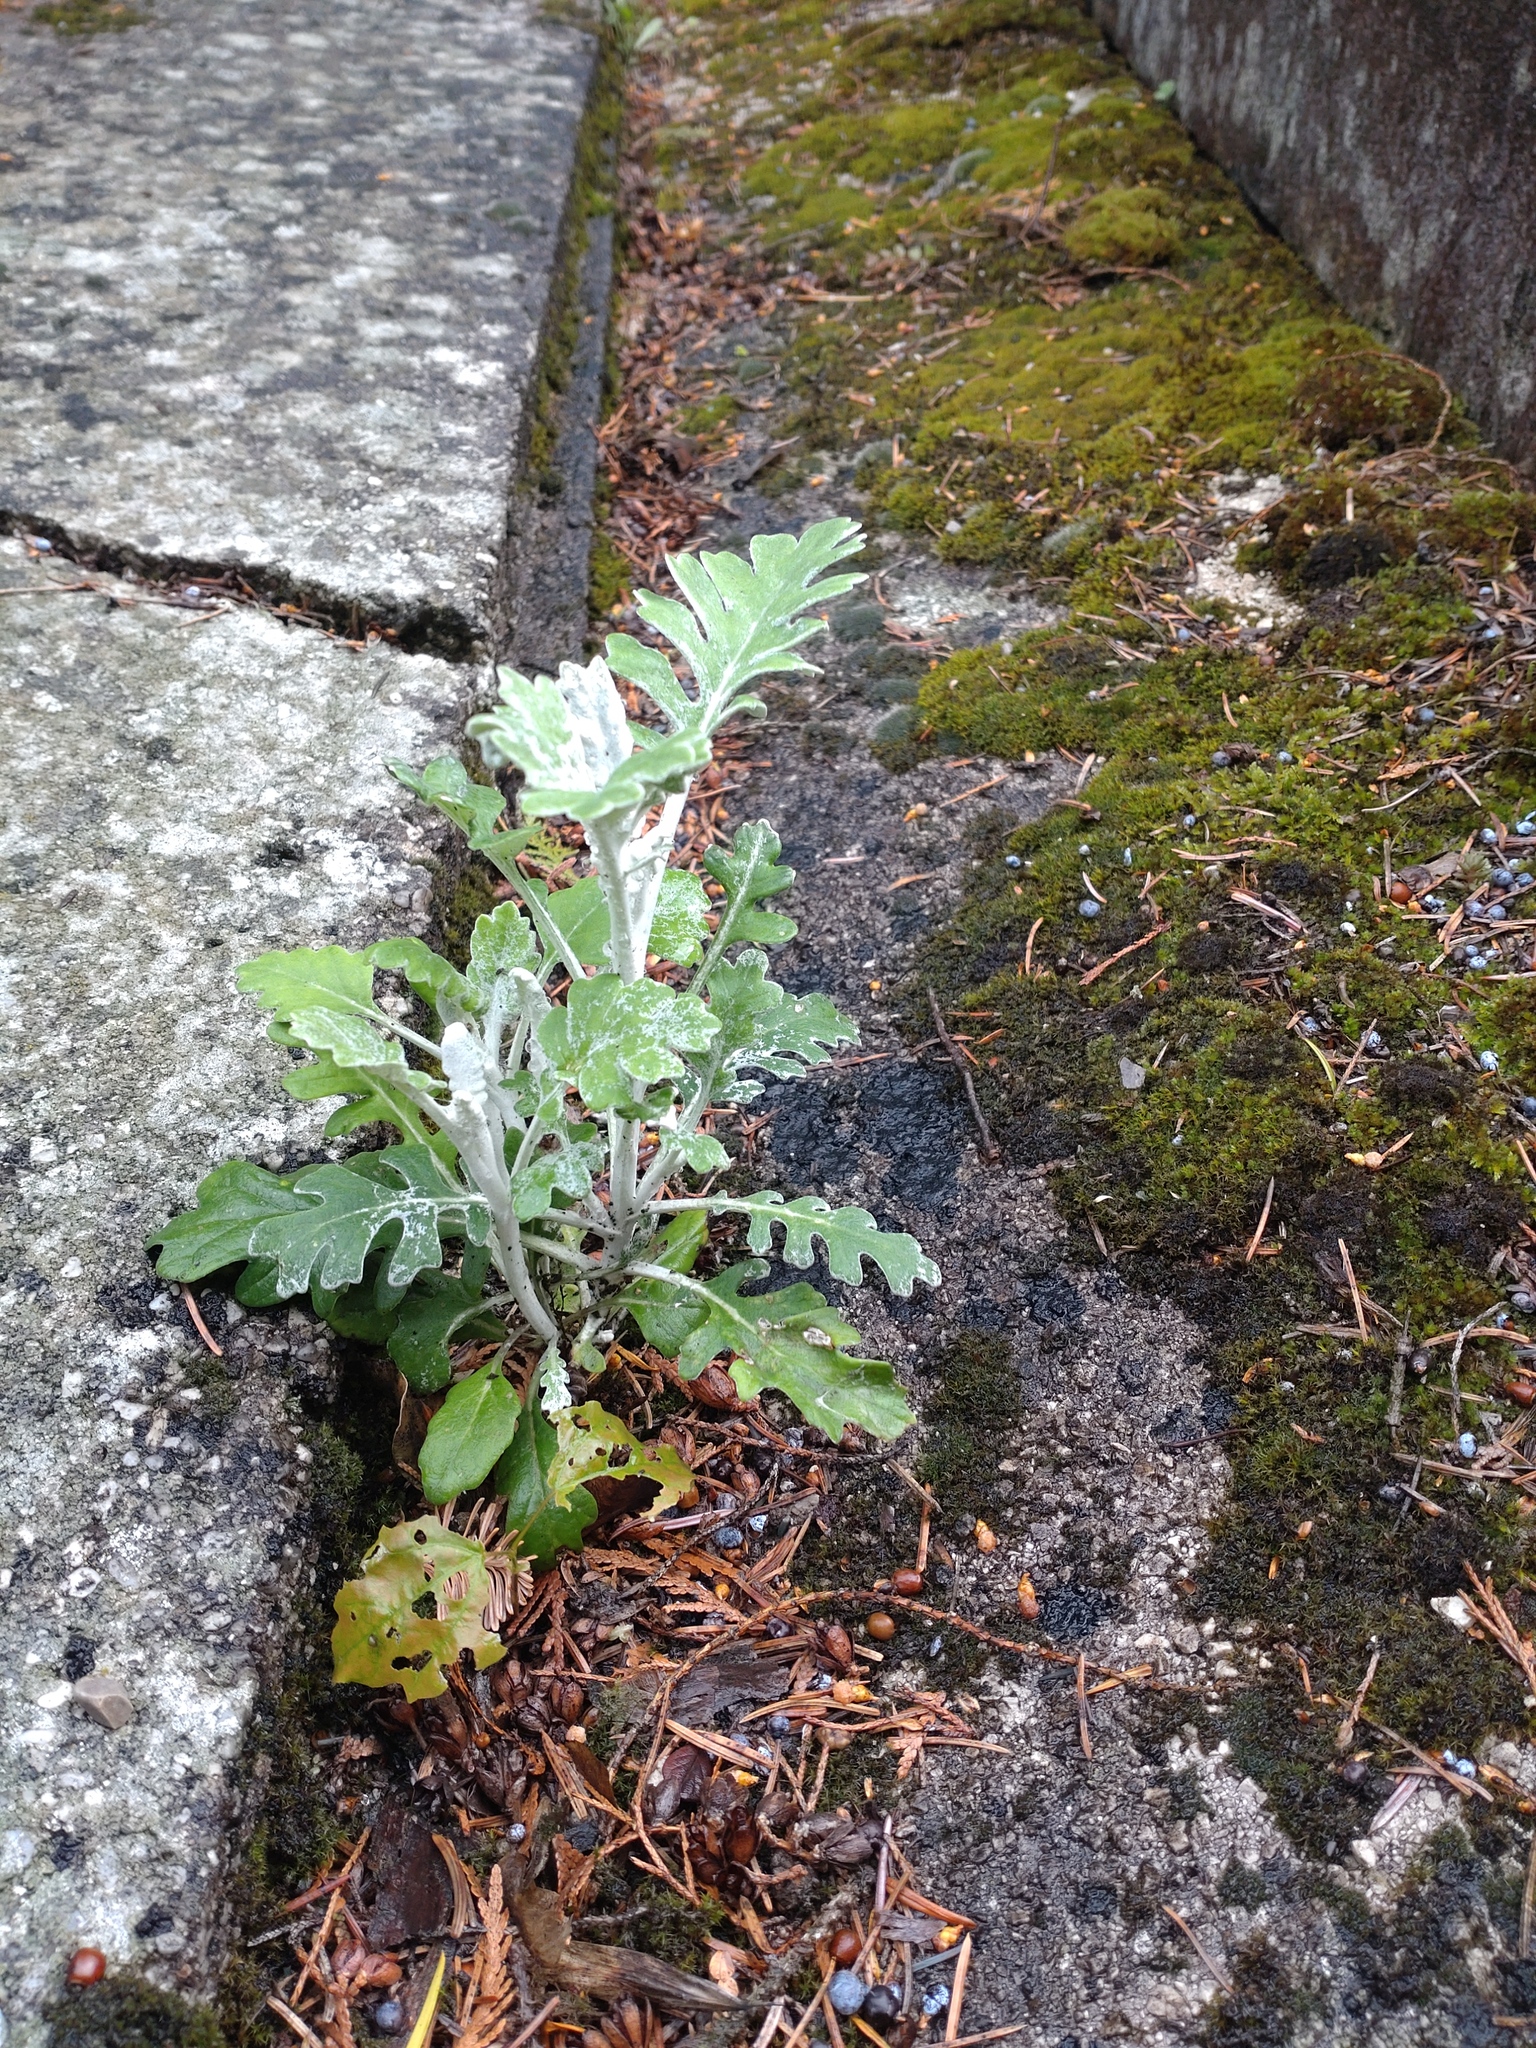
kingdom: Plantae
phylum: Tracheophyta
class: Magnoliopsida
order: Asterales
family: Asteraceae
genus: Jacobaea
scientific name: Jacobaea maritima
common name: Silver ragwort
